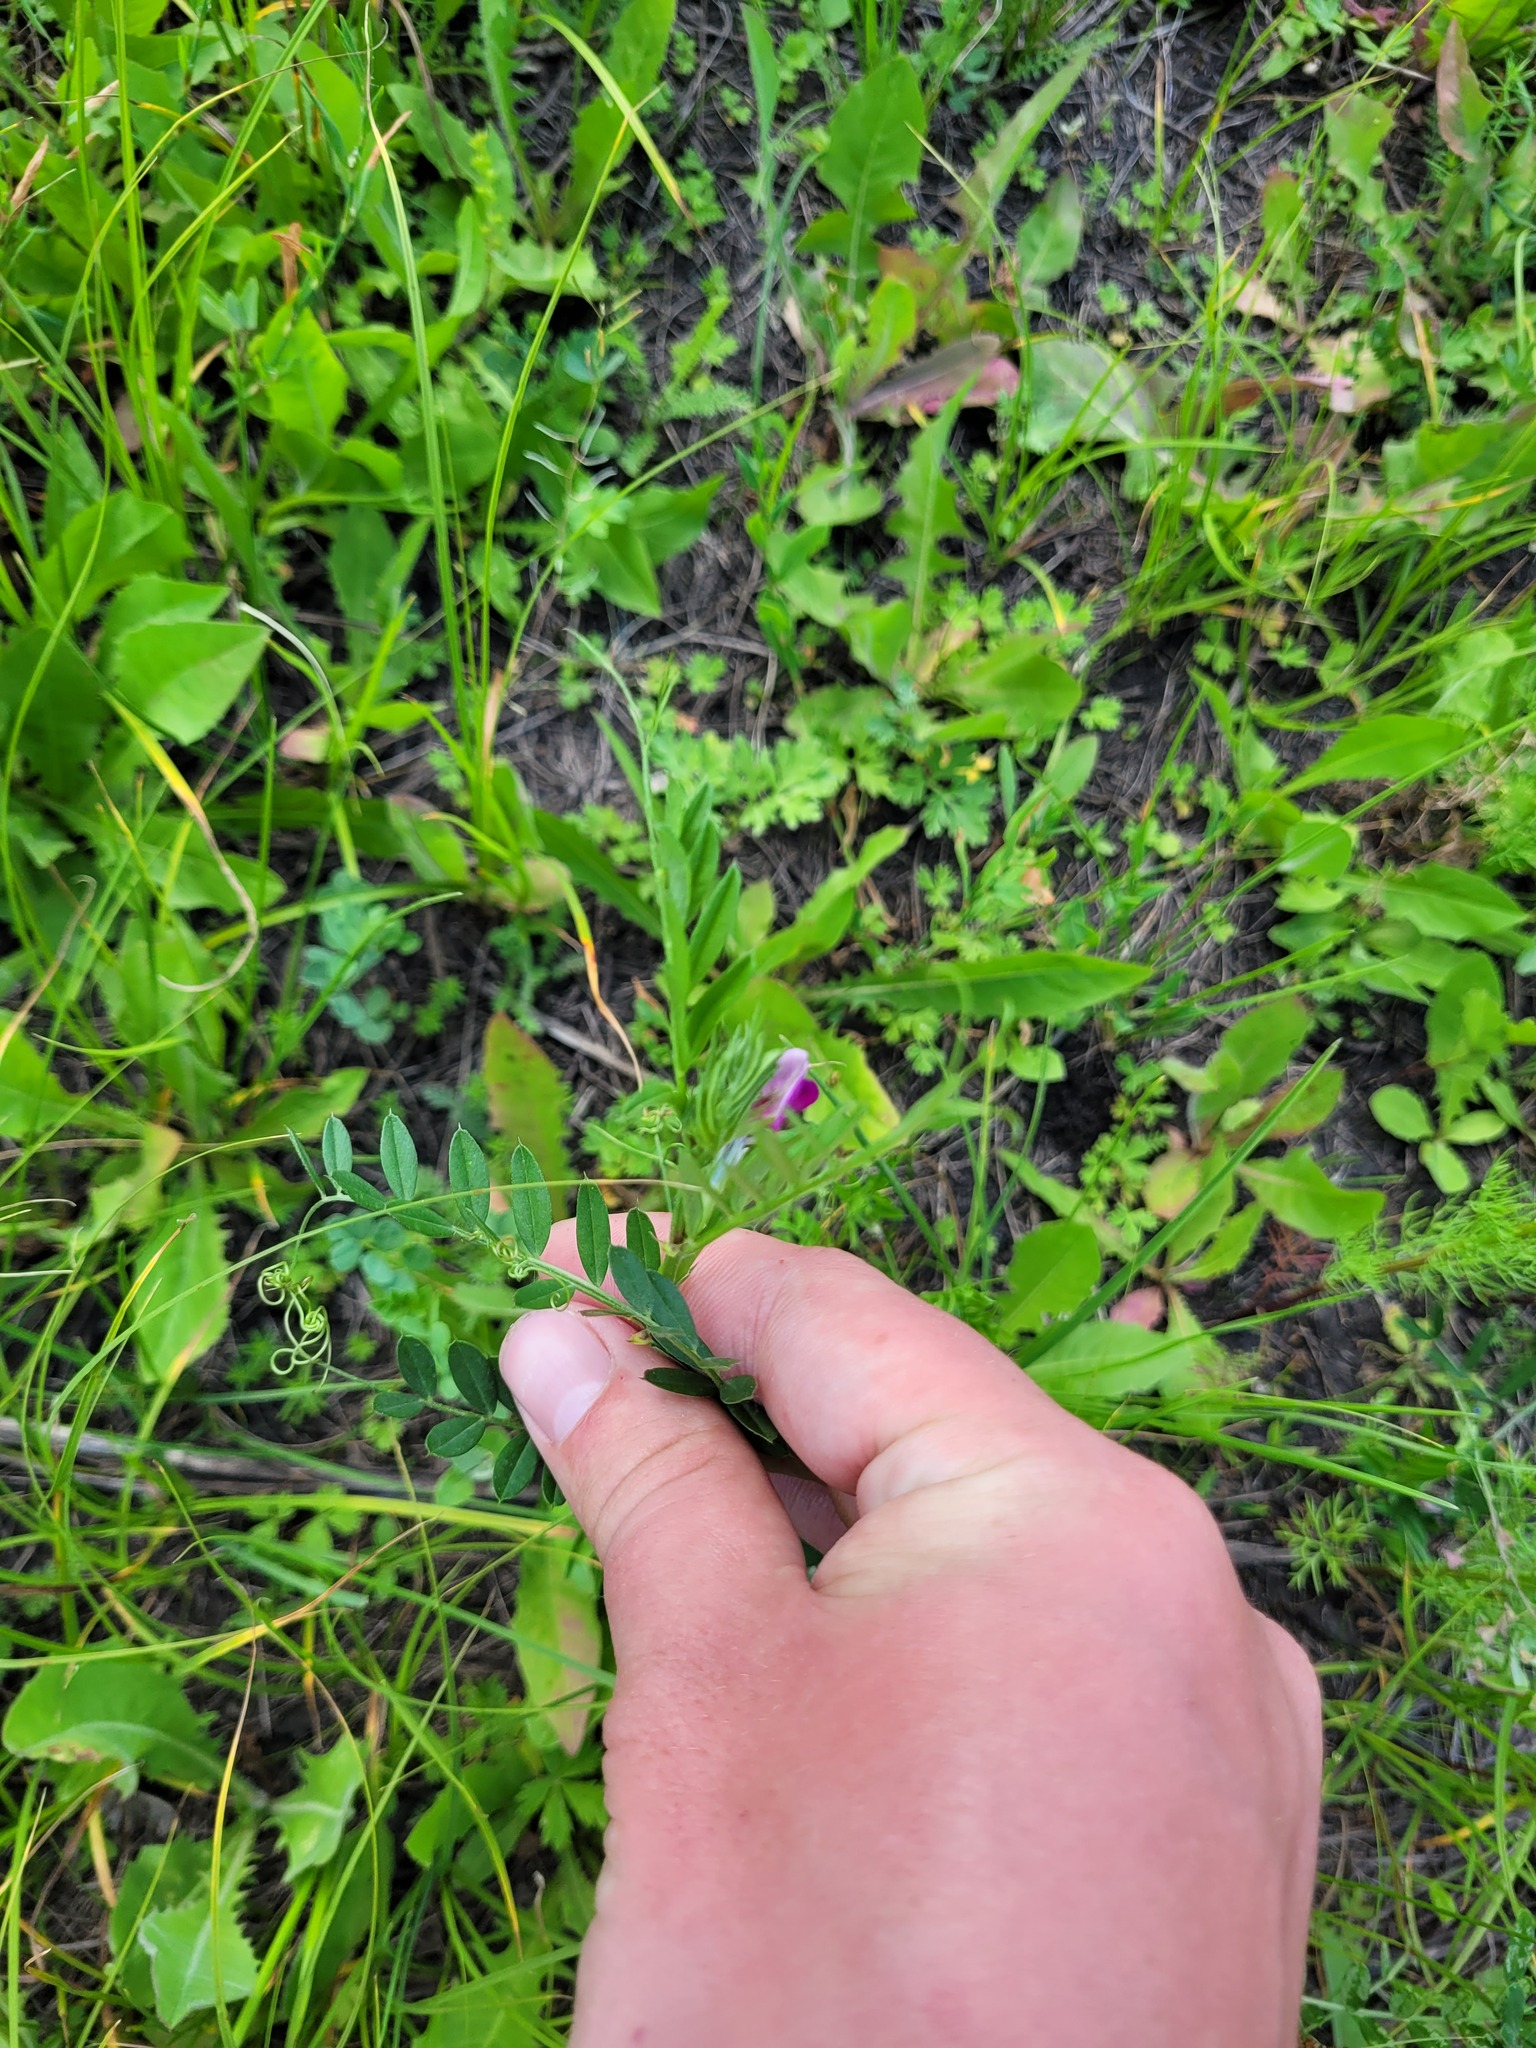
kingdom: Plantae
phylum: Tracheophyta
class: Magnoliopsida
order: Fabales
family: Fabaceae
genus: Vicia
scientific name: Vicia sativa
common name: Garden vetch
